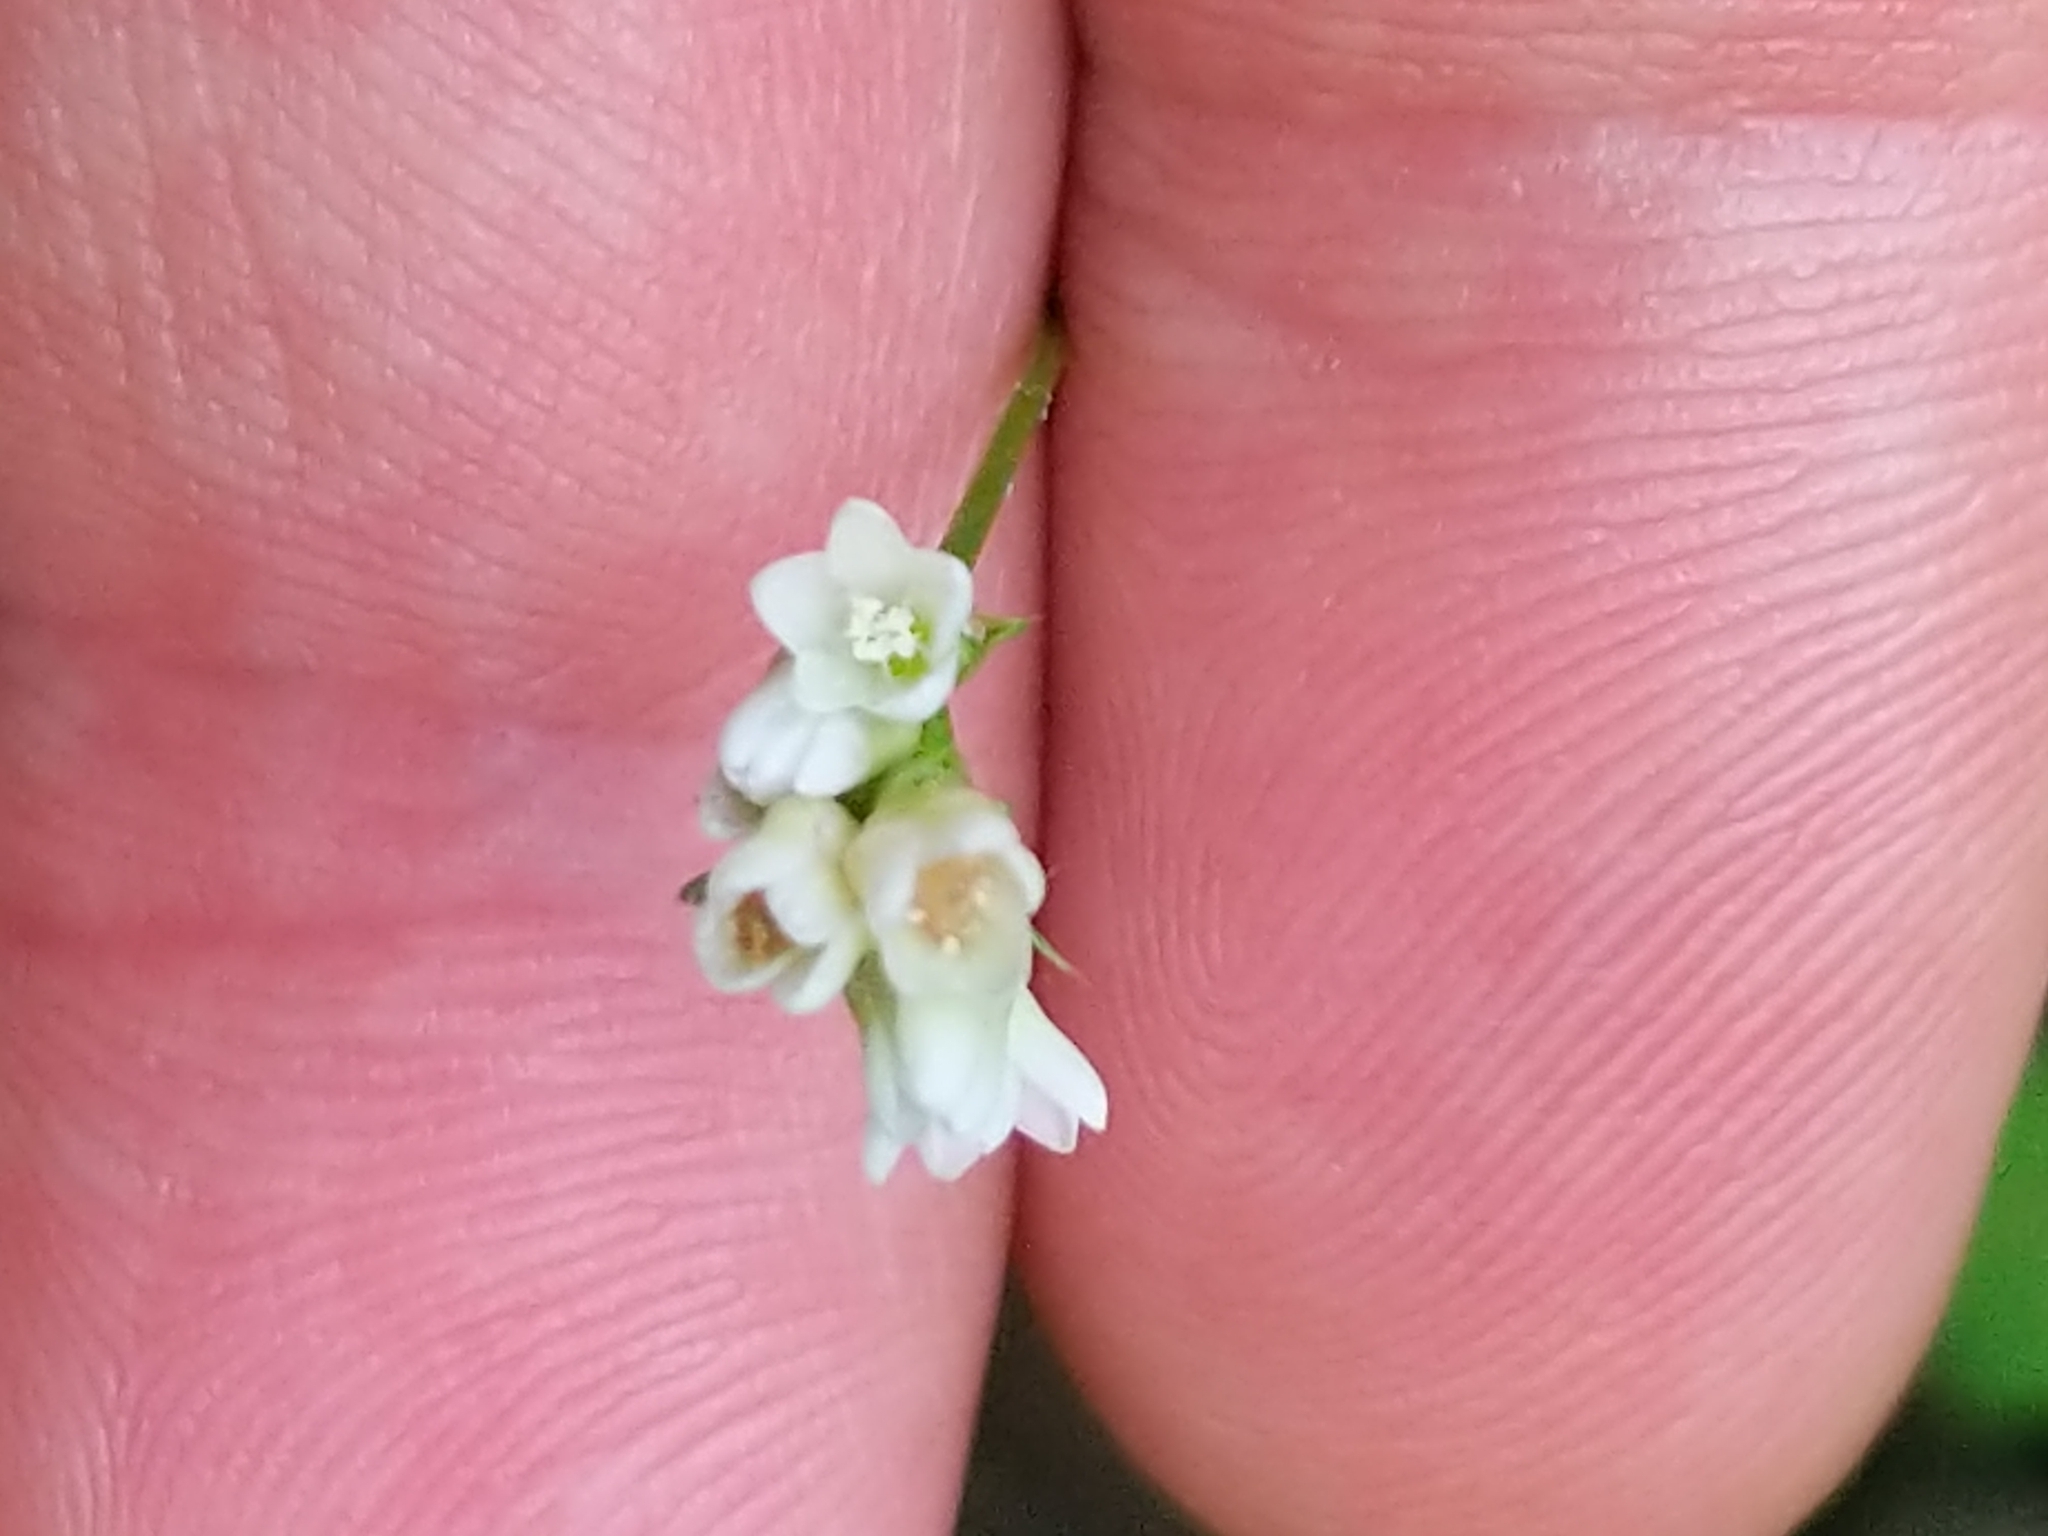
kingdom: Plantae
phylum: Tracheophyta
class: Magnoliopsida
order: Caryophyllales
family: Polygonaceae
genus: Persicaria
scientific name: Persicaria sagittata
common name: American tearthumb
